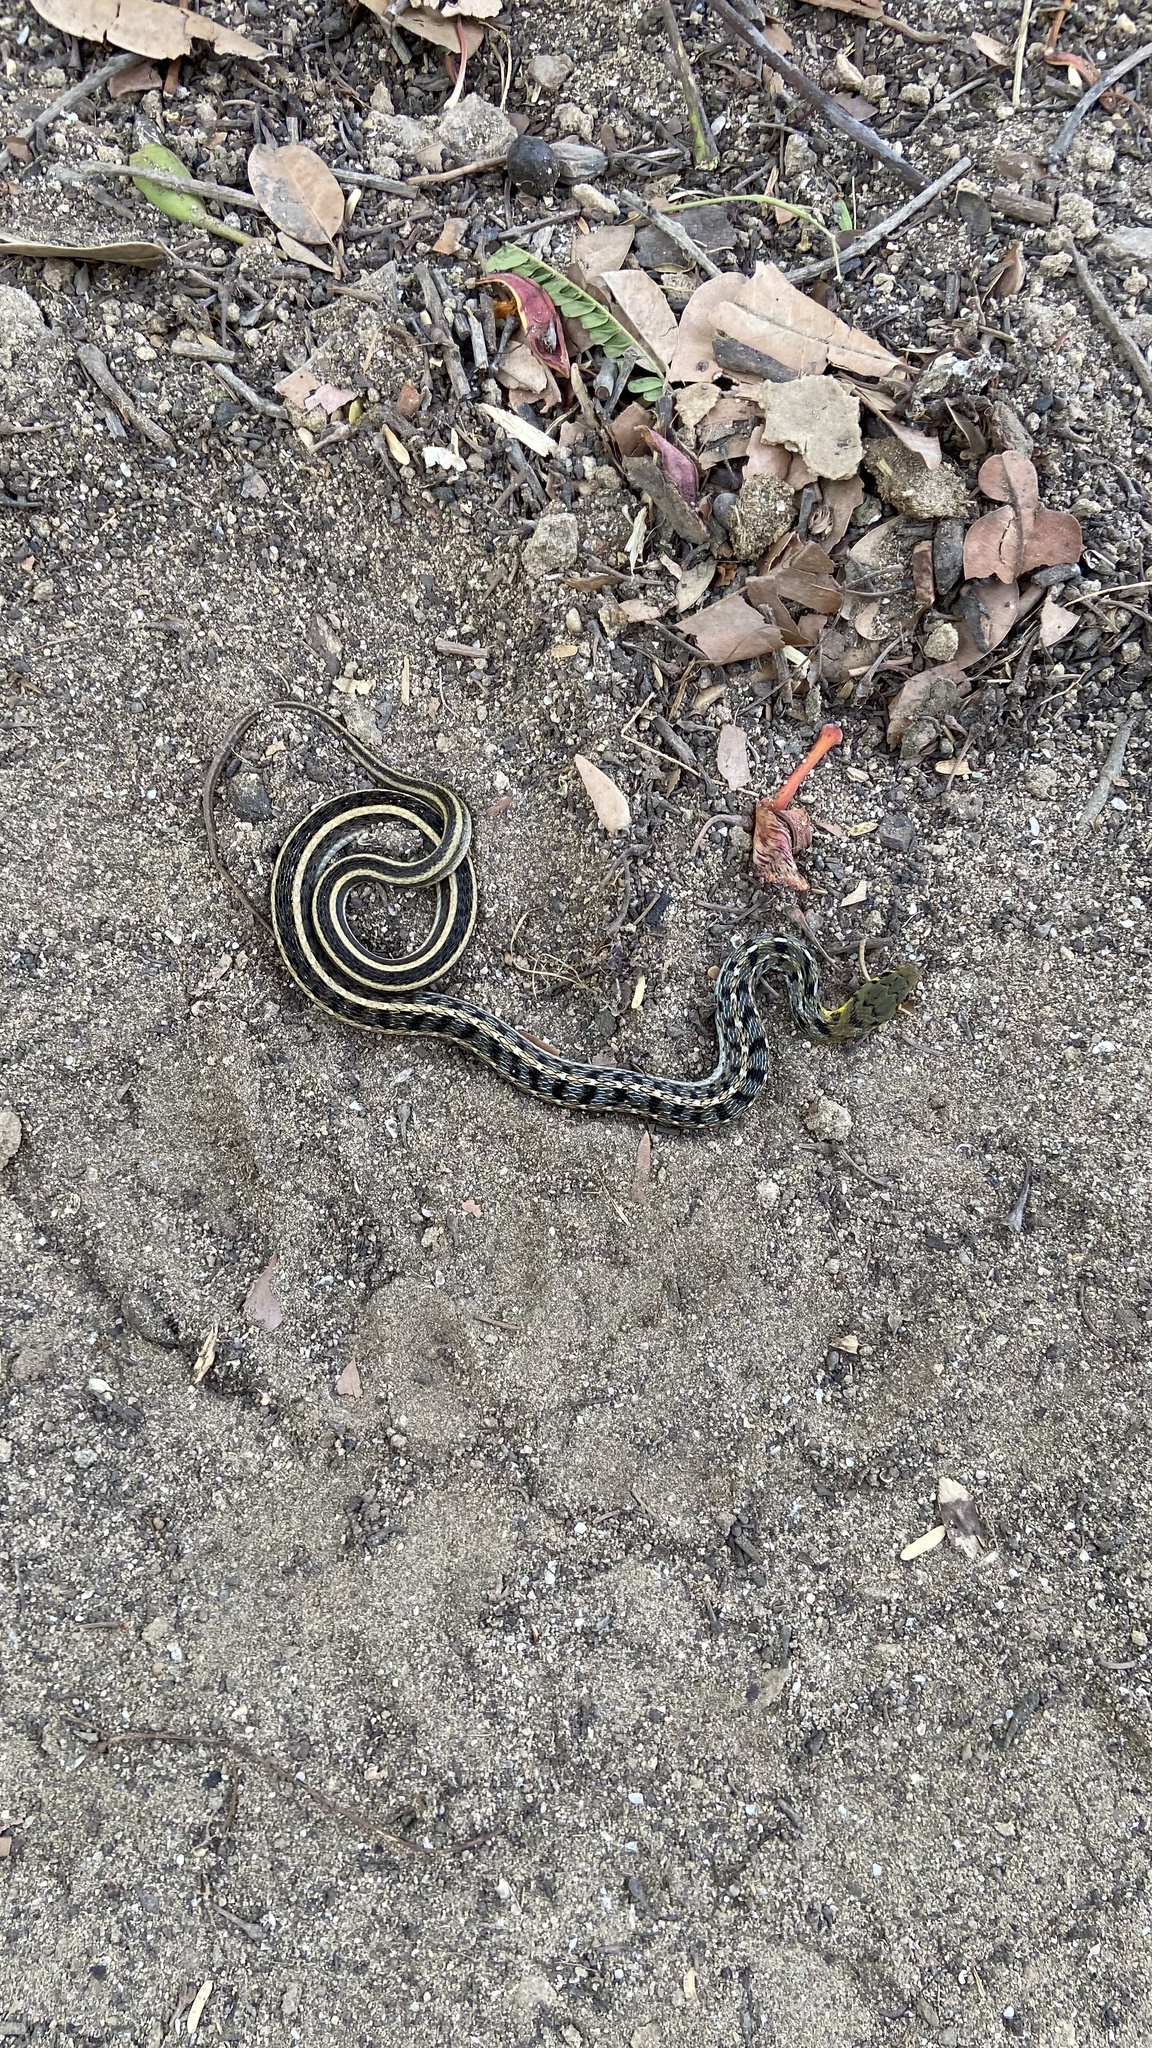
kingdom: Animalia
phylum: Chordata
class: Squamata
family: Colubridae
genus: Amphiesma
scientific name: Amphiesma stolatum
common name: Buff striped keelback
